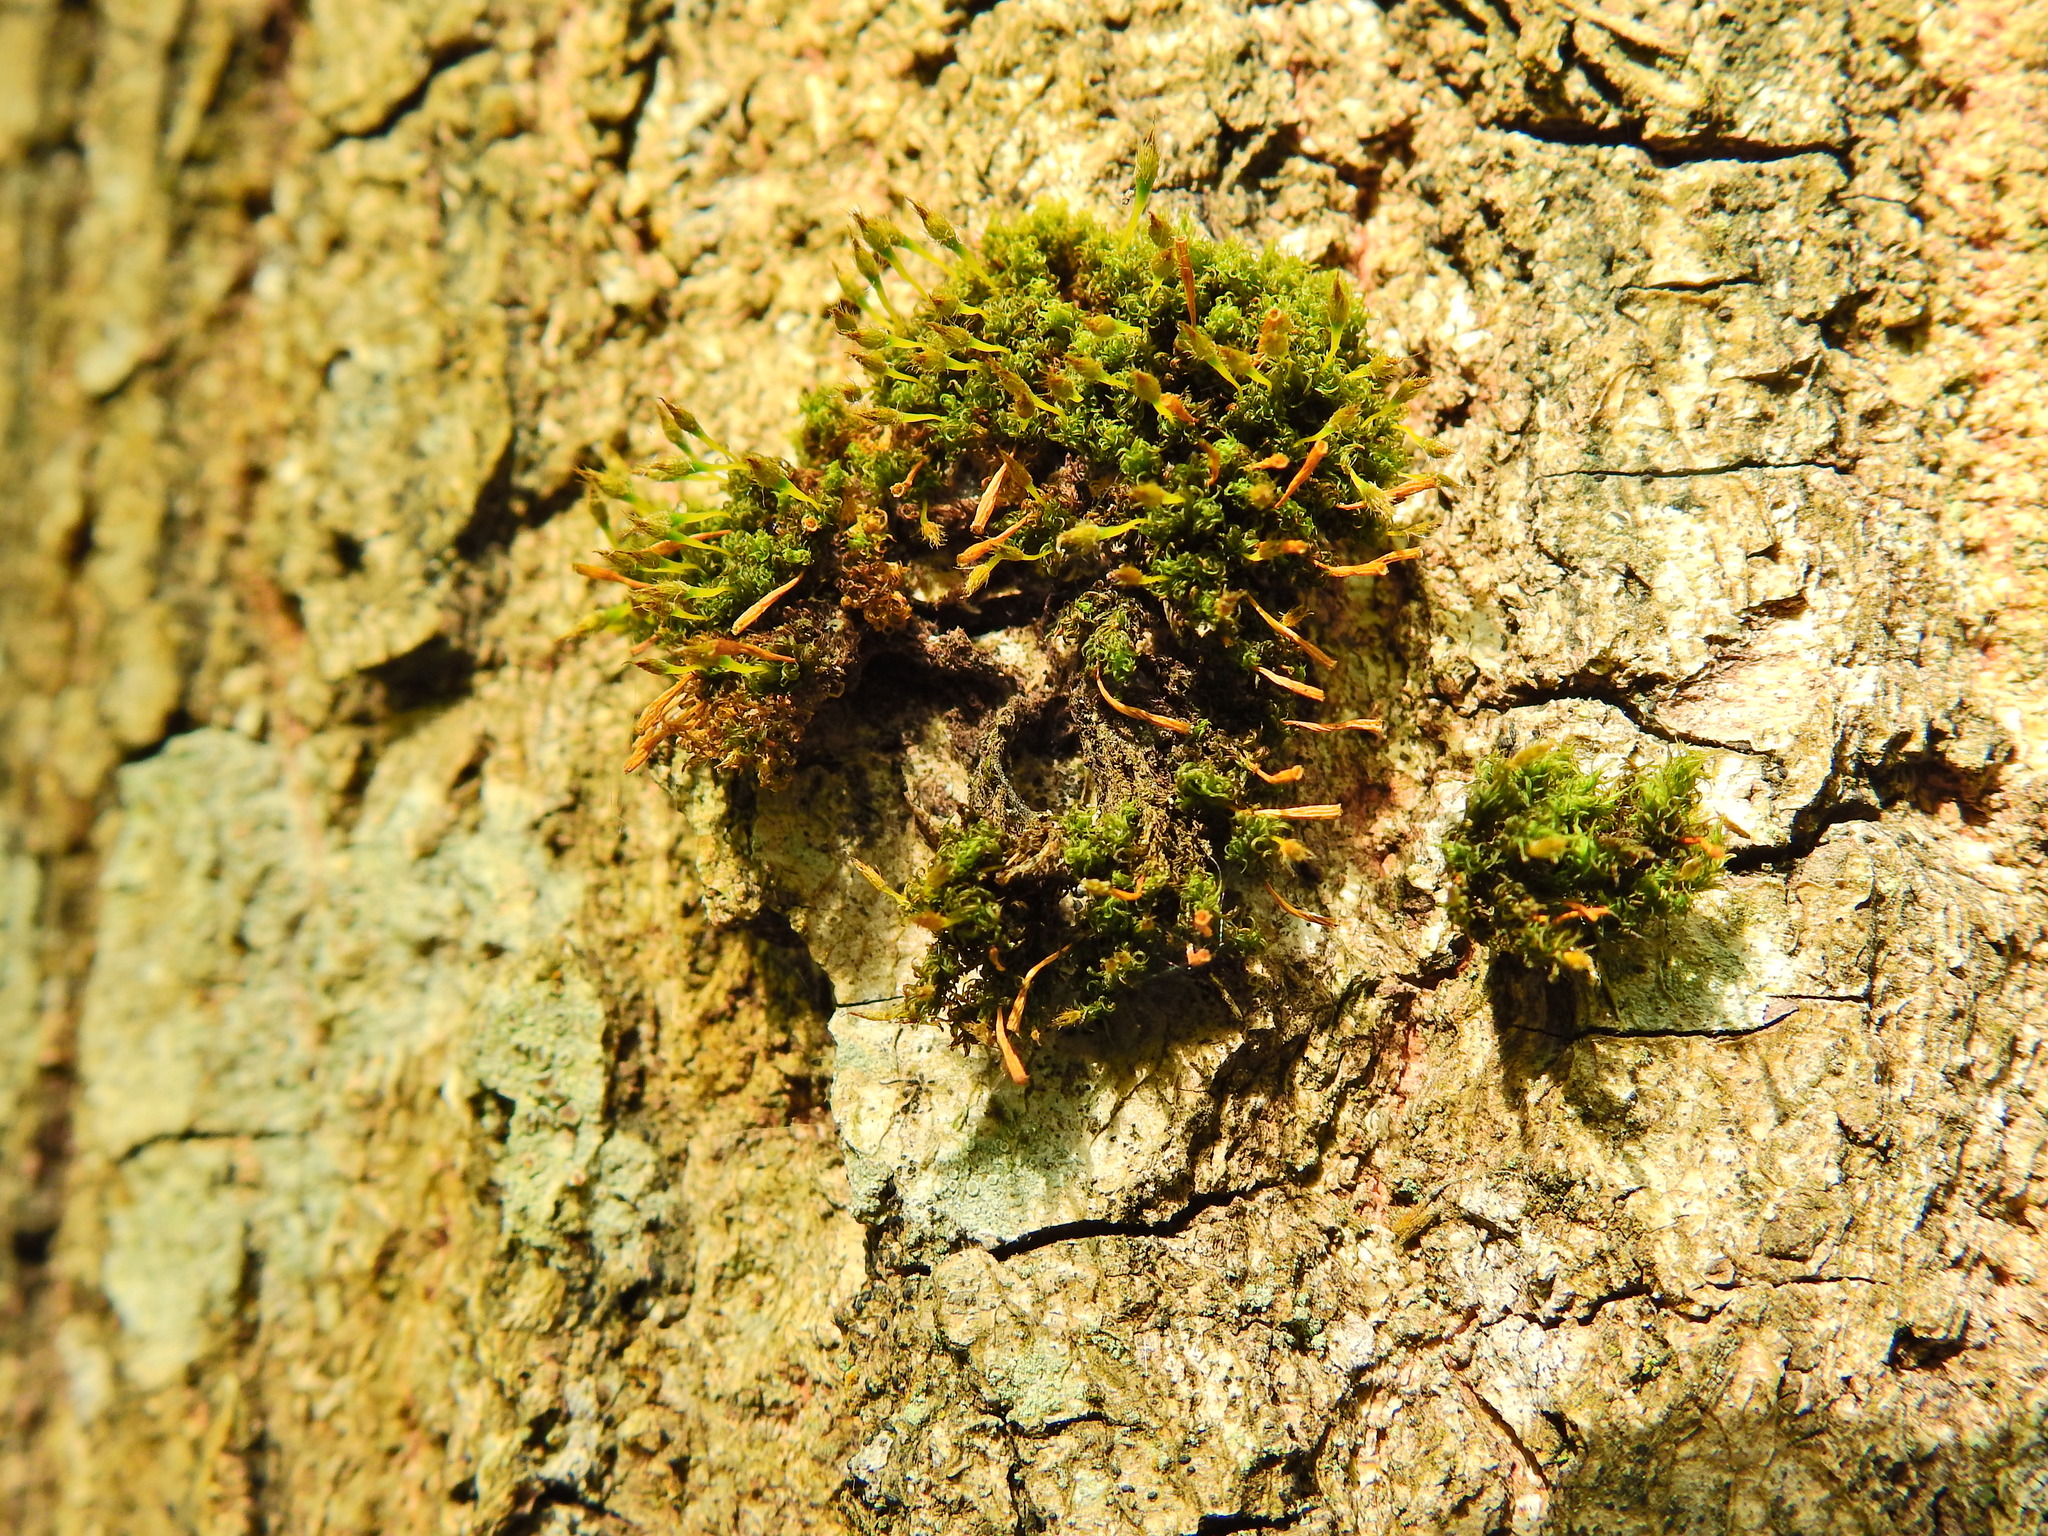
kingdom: Plantae
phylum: Bryophyta
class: Bryopsida
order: Orthotrichales
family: Orthotrichaceae
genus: Ulota
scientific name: Ulota crispa
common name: Crisped pincushion moss
